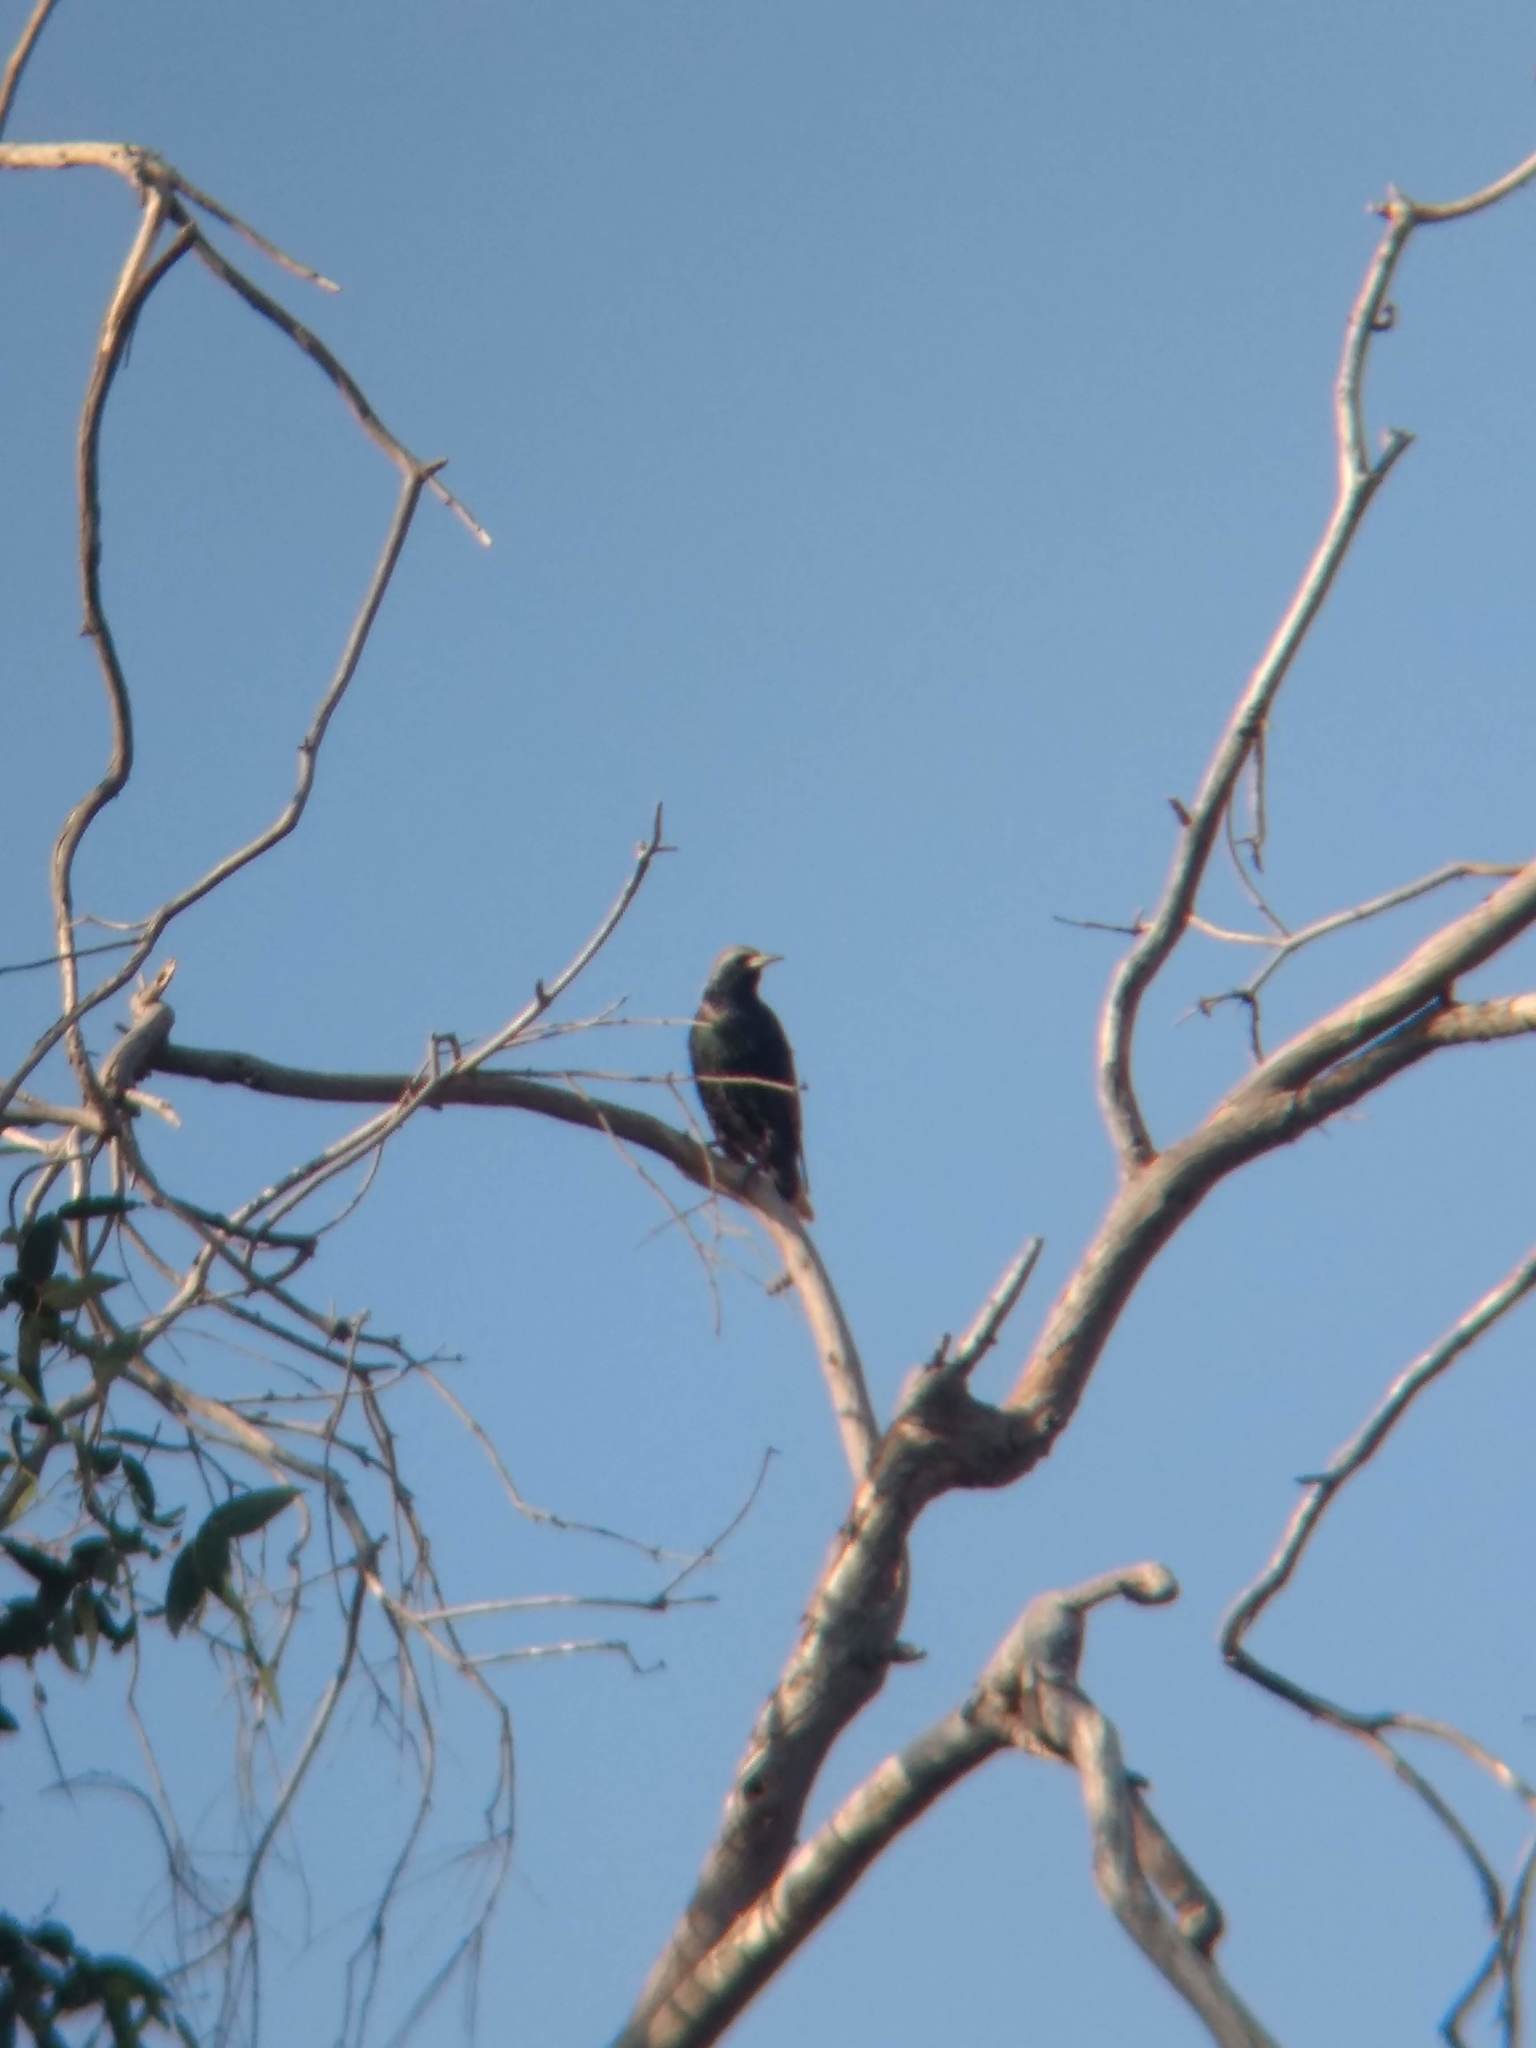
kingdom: Animalia
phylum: Chordata
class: Aves
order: Passeriformes
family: Sturnidae
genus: Sturnus
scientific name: Sturnus vulgaris
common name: Common starling
